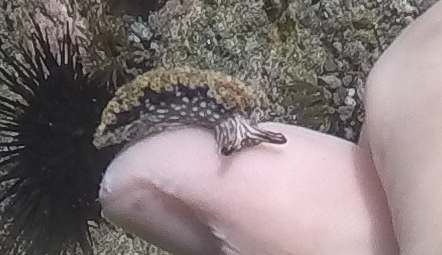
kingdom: Animalia
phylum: Mollusca
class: Gastropoda
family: Plakobranchidae
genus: Elysia
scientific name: Elysia diomedea
